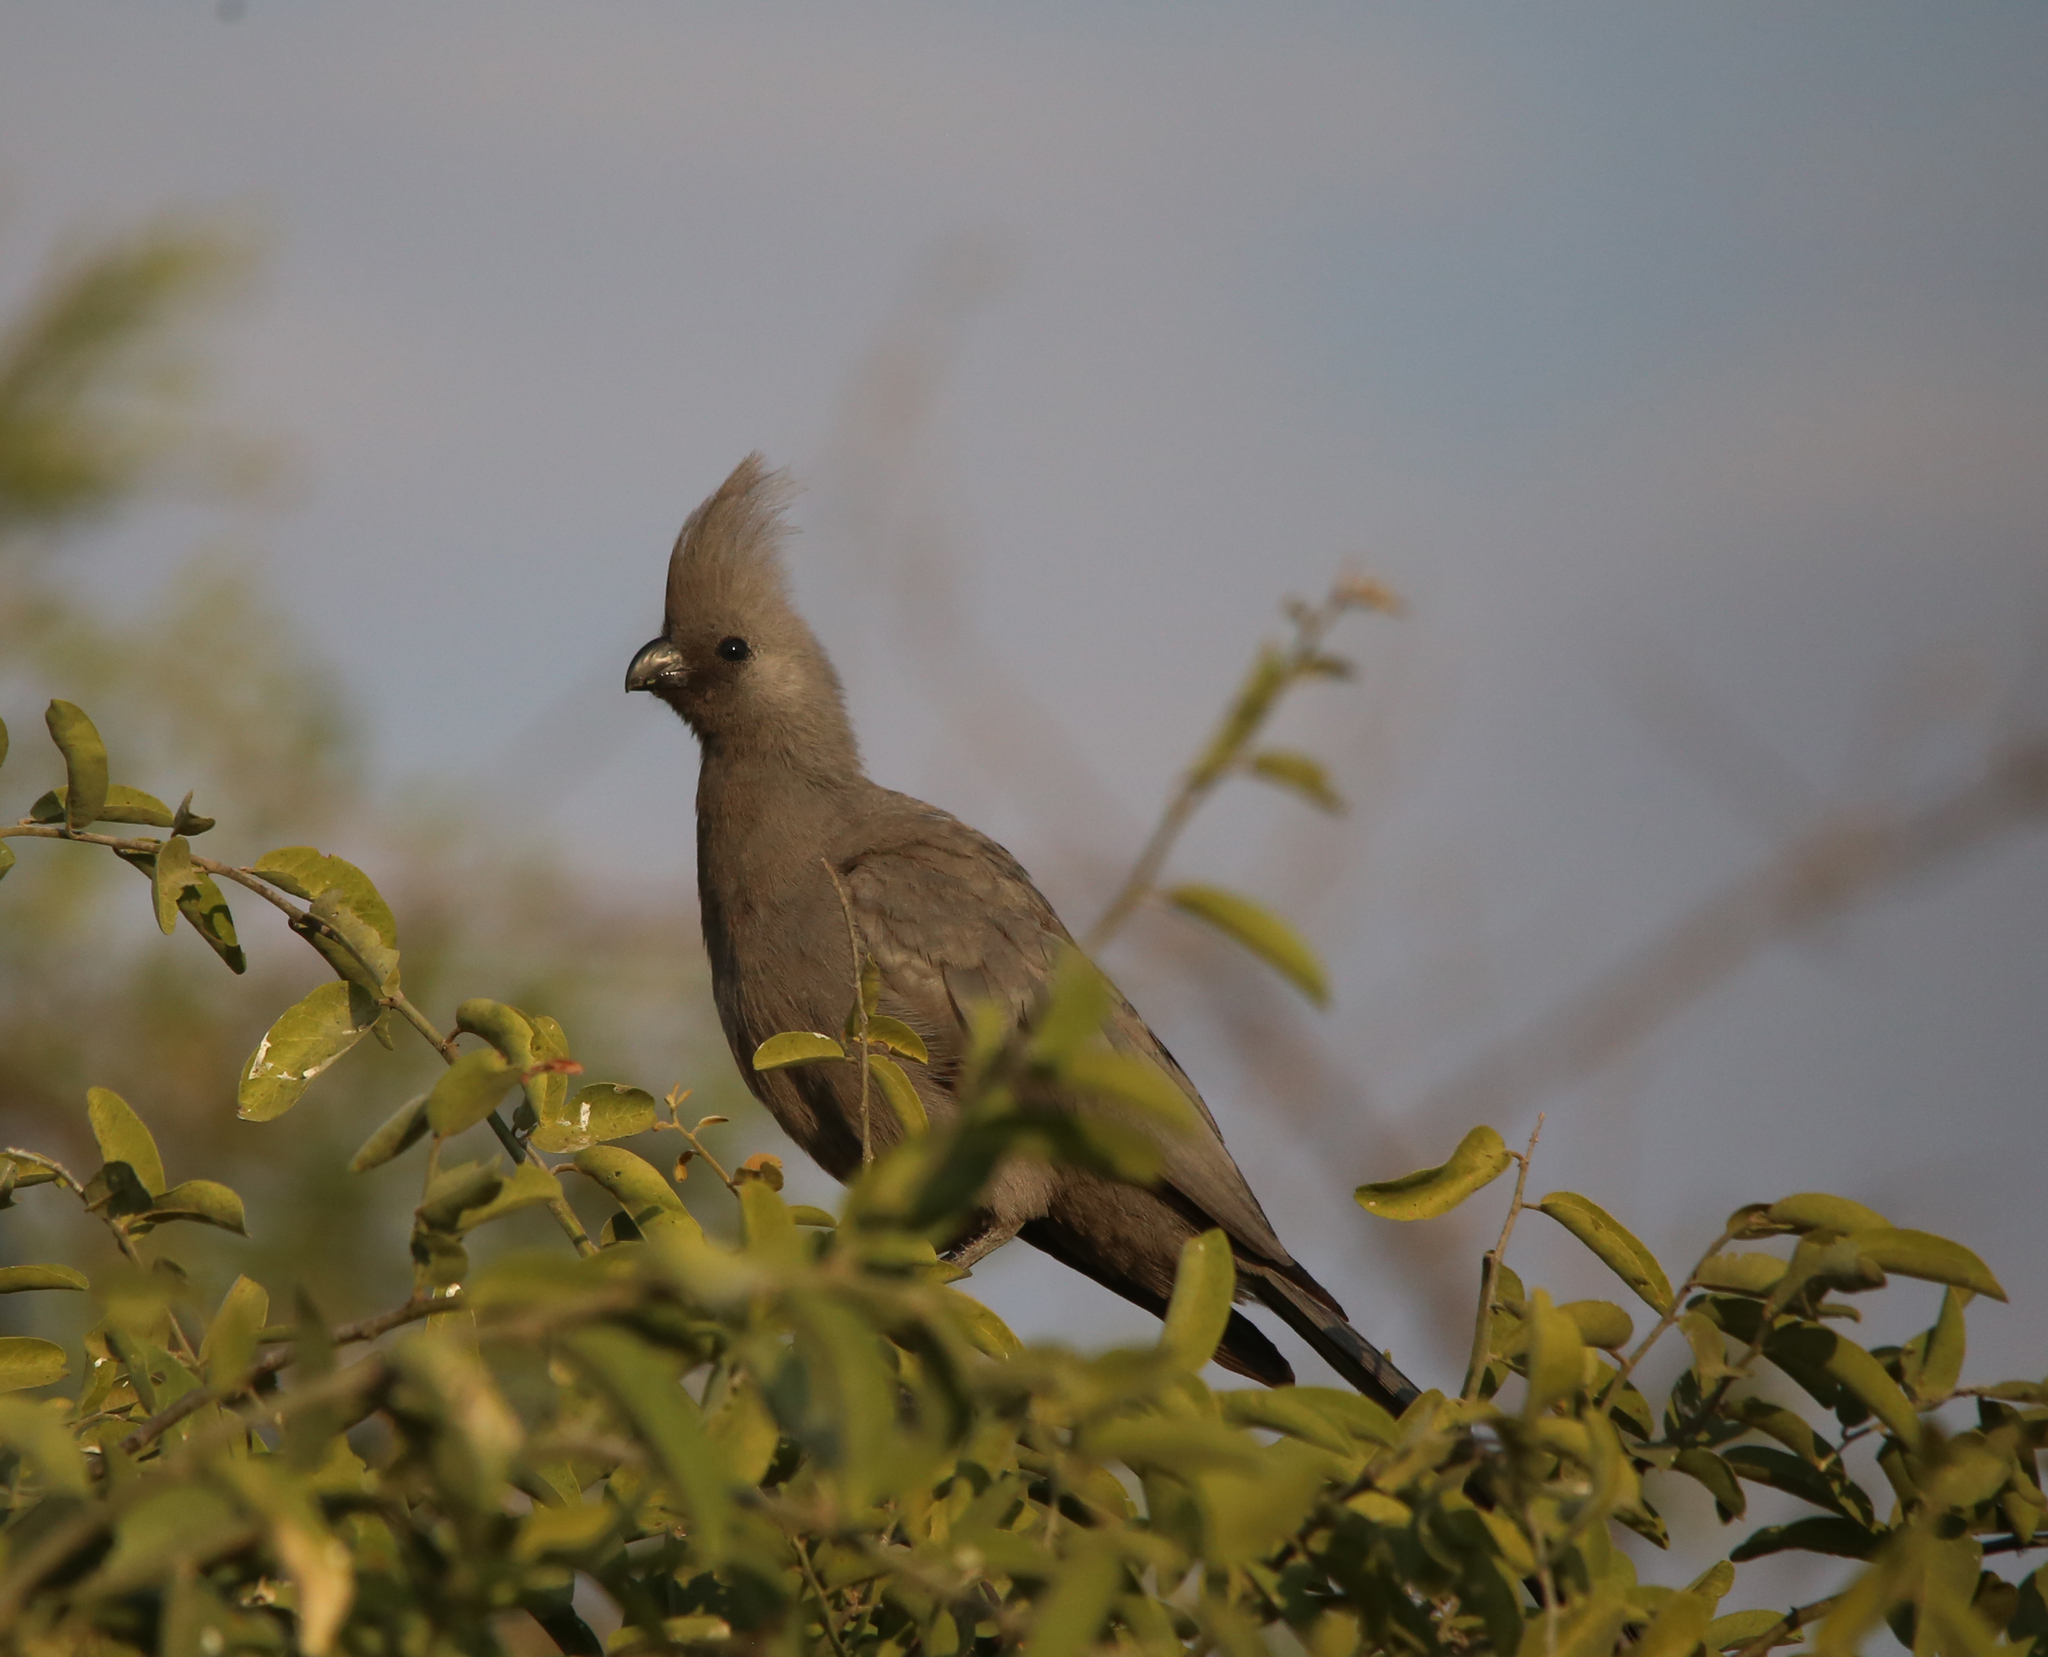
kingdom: Animalia
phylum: Chordata
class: Aves
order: Musophagiformes
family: Musophagidae
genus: Corythaixoides
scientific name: Corythaixoides concolor
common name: Grey go-away-bird
